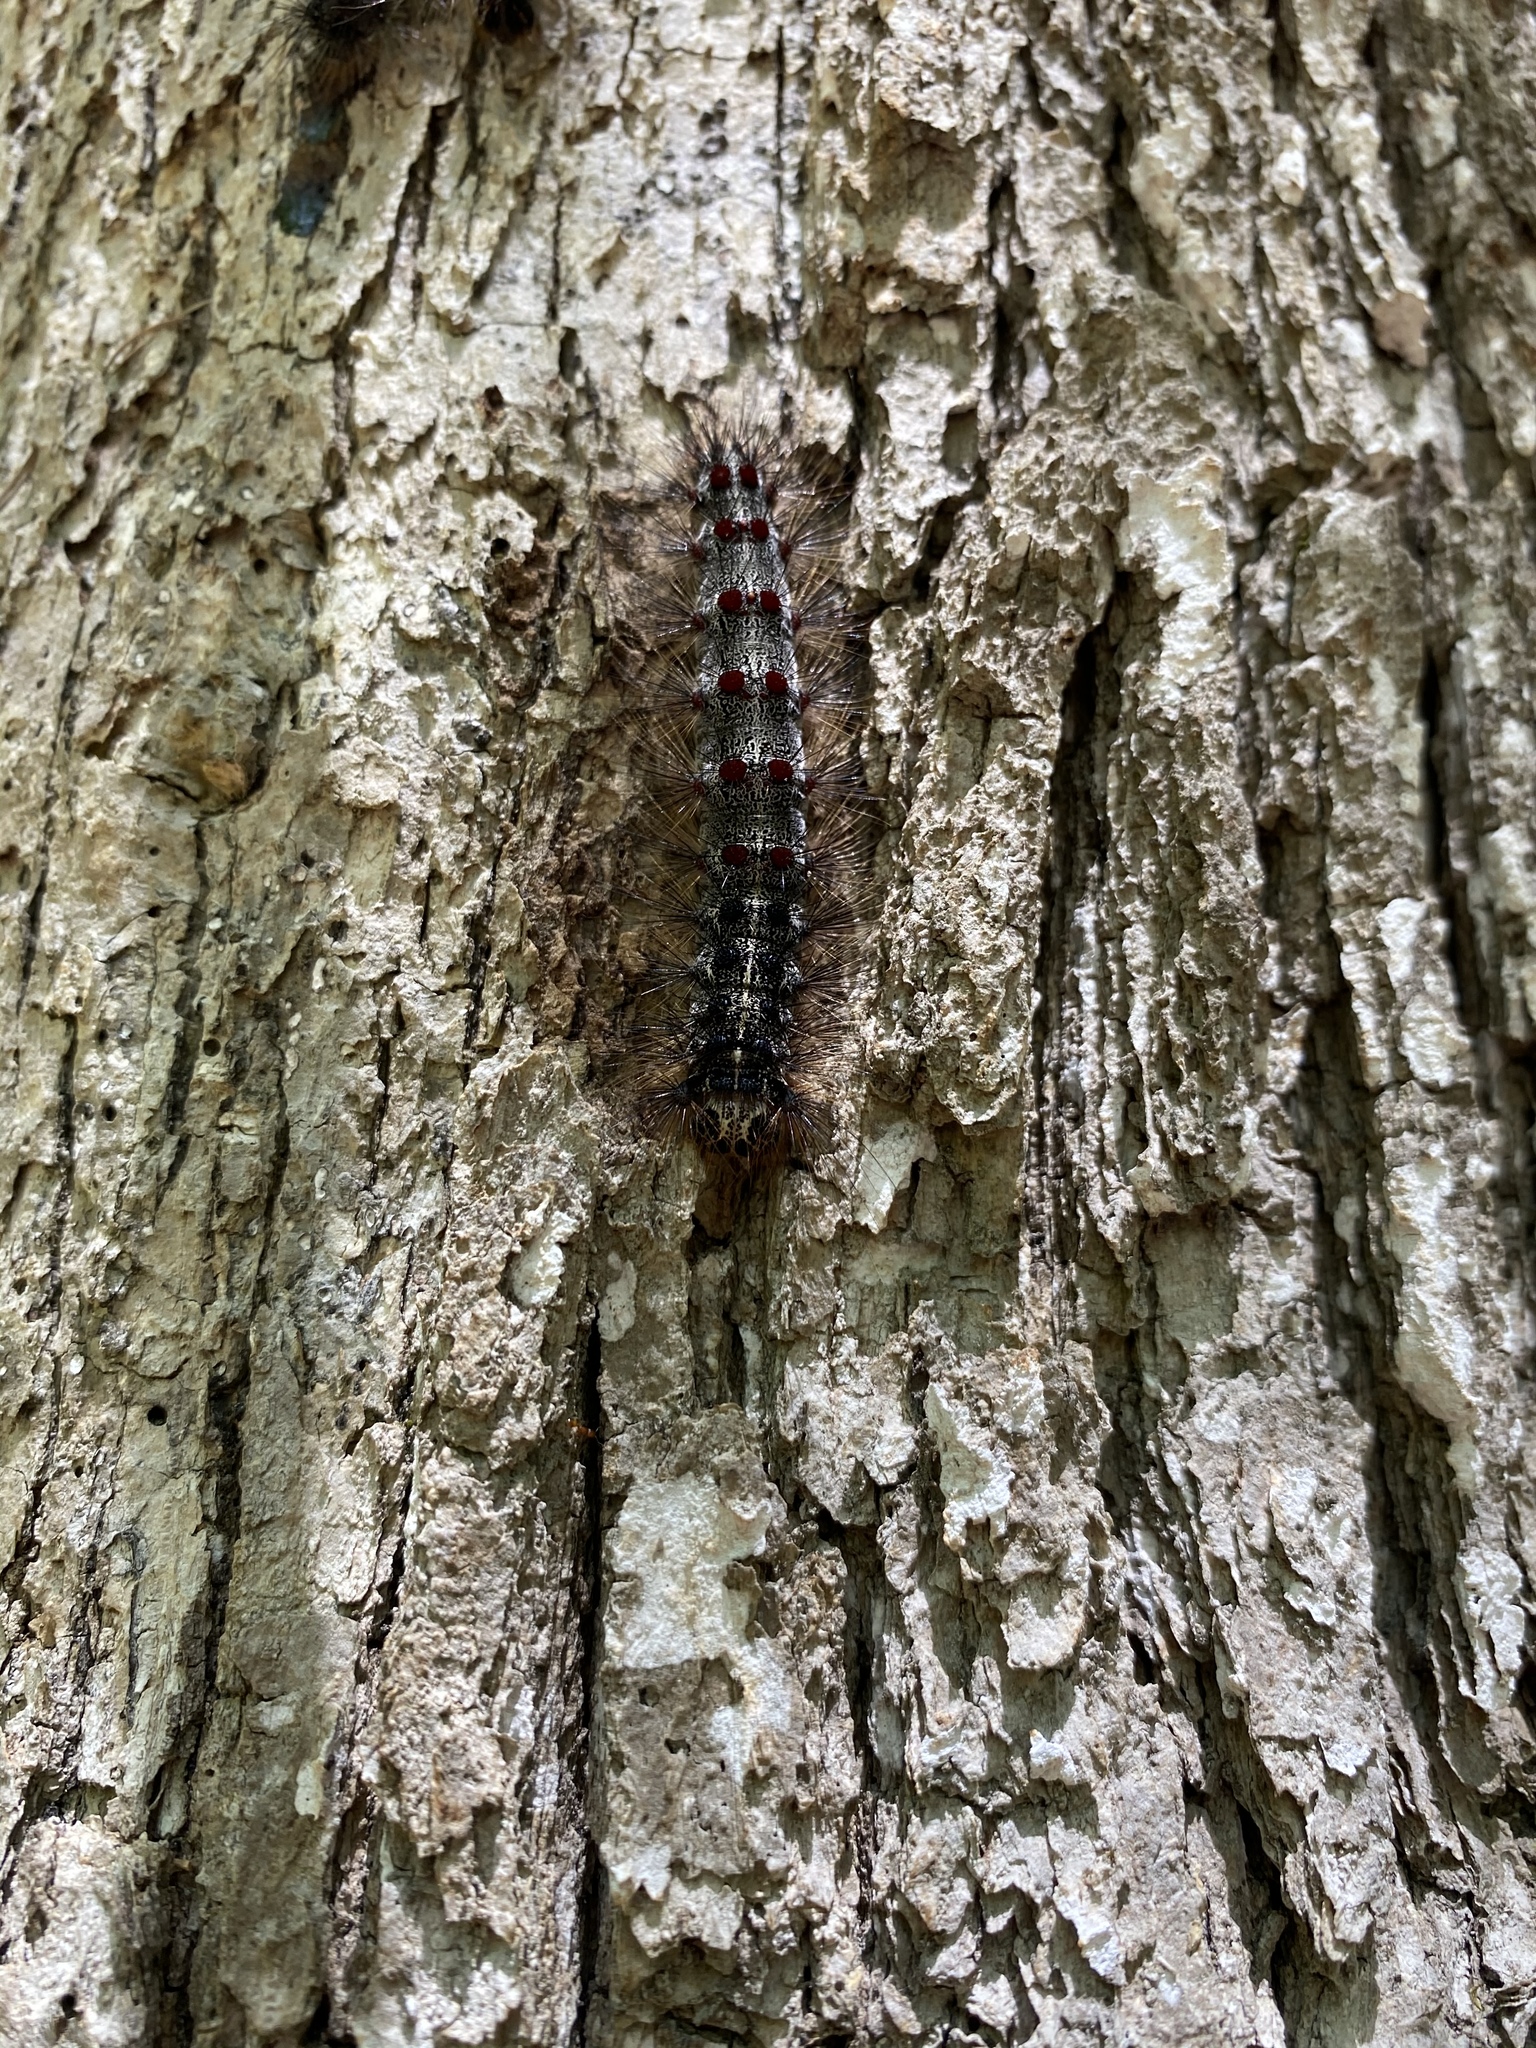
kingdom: Animalia
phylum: Arthropoda
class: Insecta
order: Lepidoptera
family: Erebidae
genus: Lymantria
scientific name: Lymantria dispar
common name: Gypsy moth
